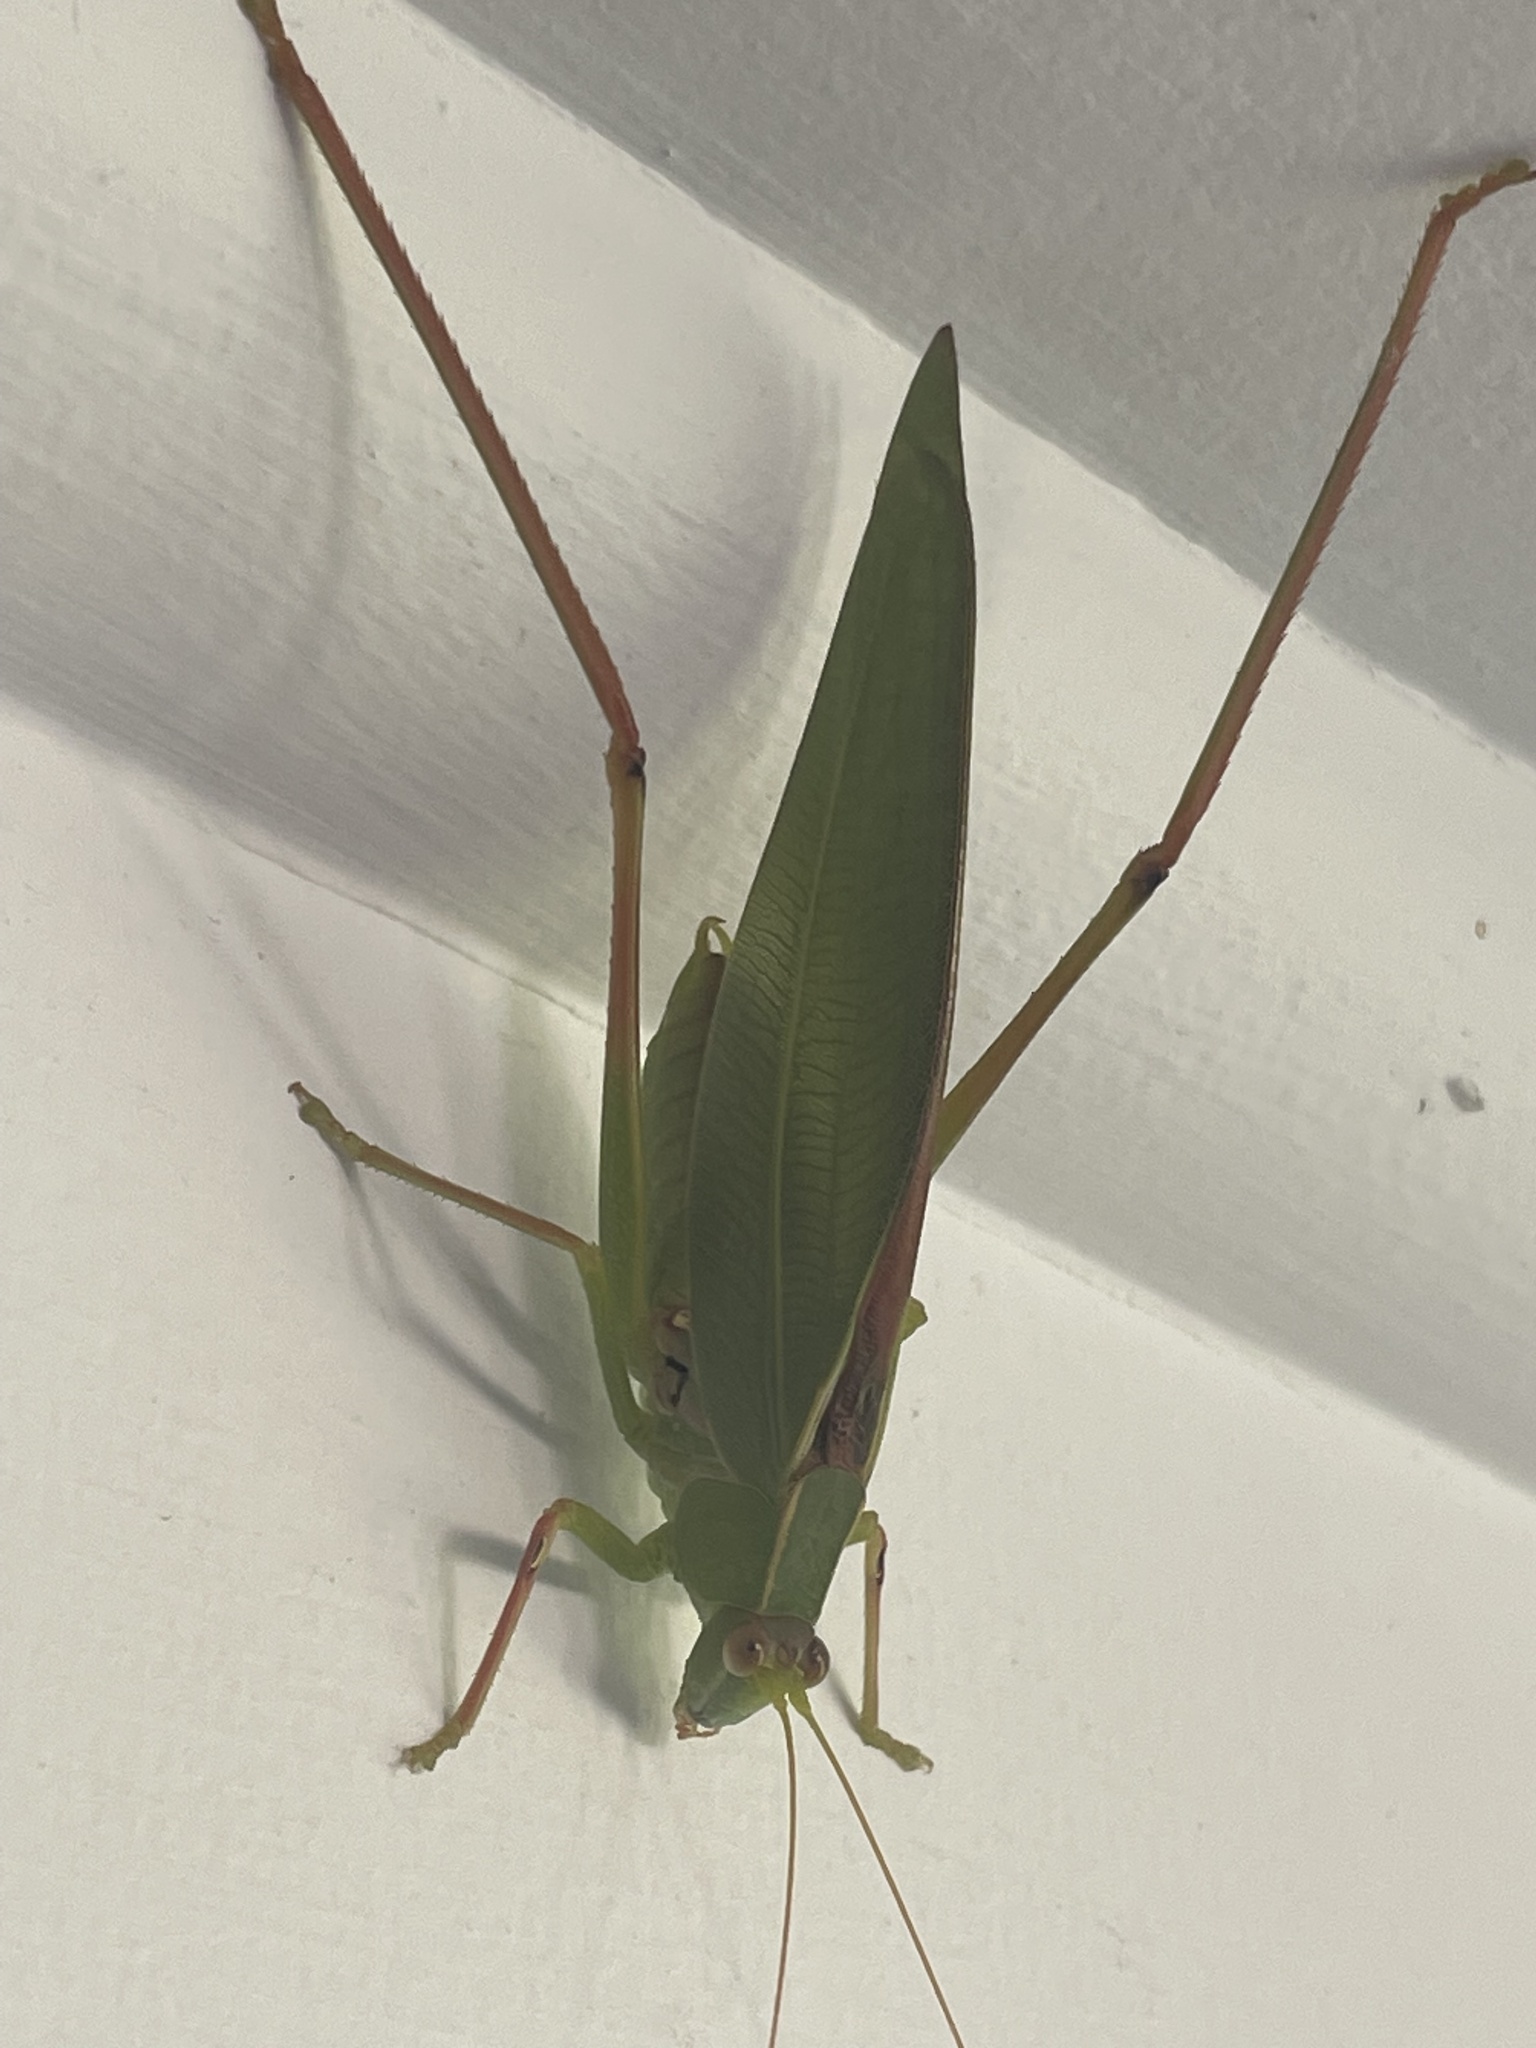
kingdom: Animalia
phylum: Arthropoda
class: Insecta
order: Orthoptera
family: Tettigoniidae
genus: Torbia
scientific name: Torbia viridissima
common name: Non-predaceous gum leaf katydid
